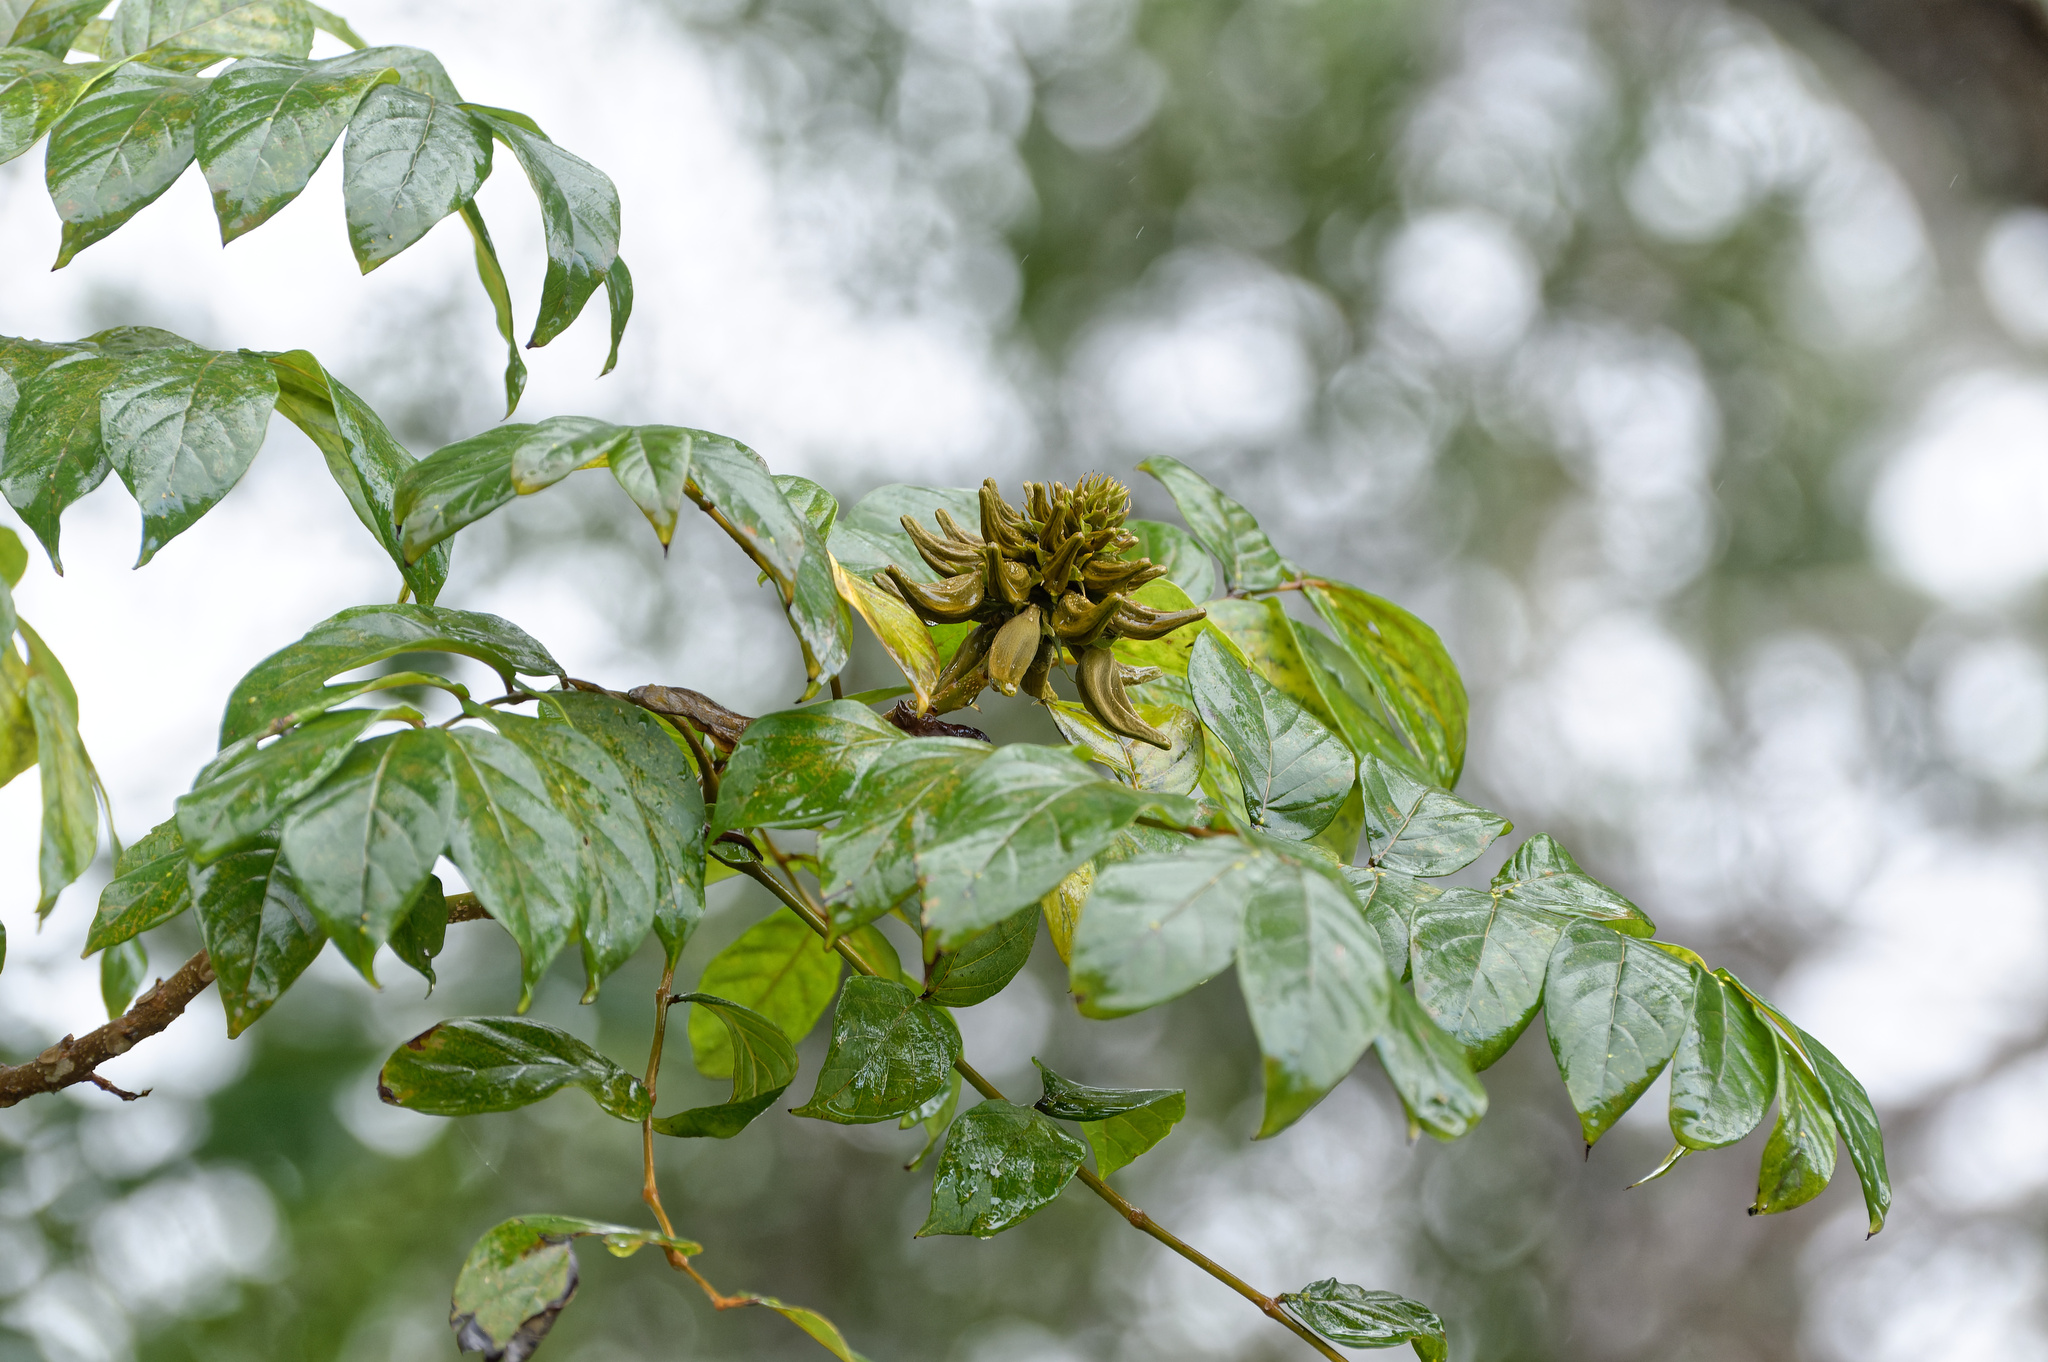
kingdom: Plantae
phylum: Tracheophyta
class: Magnoliopsida
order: Lamiales
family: Bignoniaceae
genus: Spathodea
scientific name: Spathodea campanulata
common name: African tuliptree
